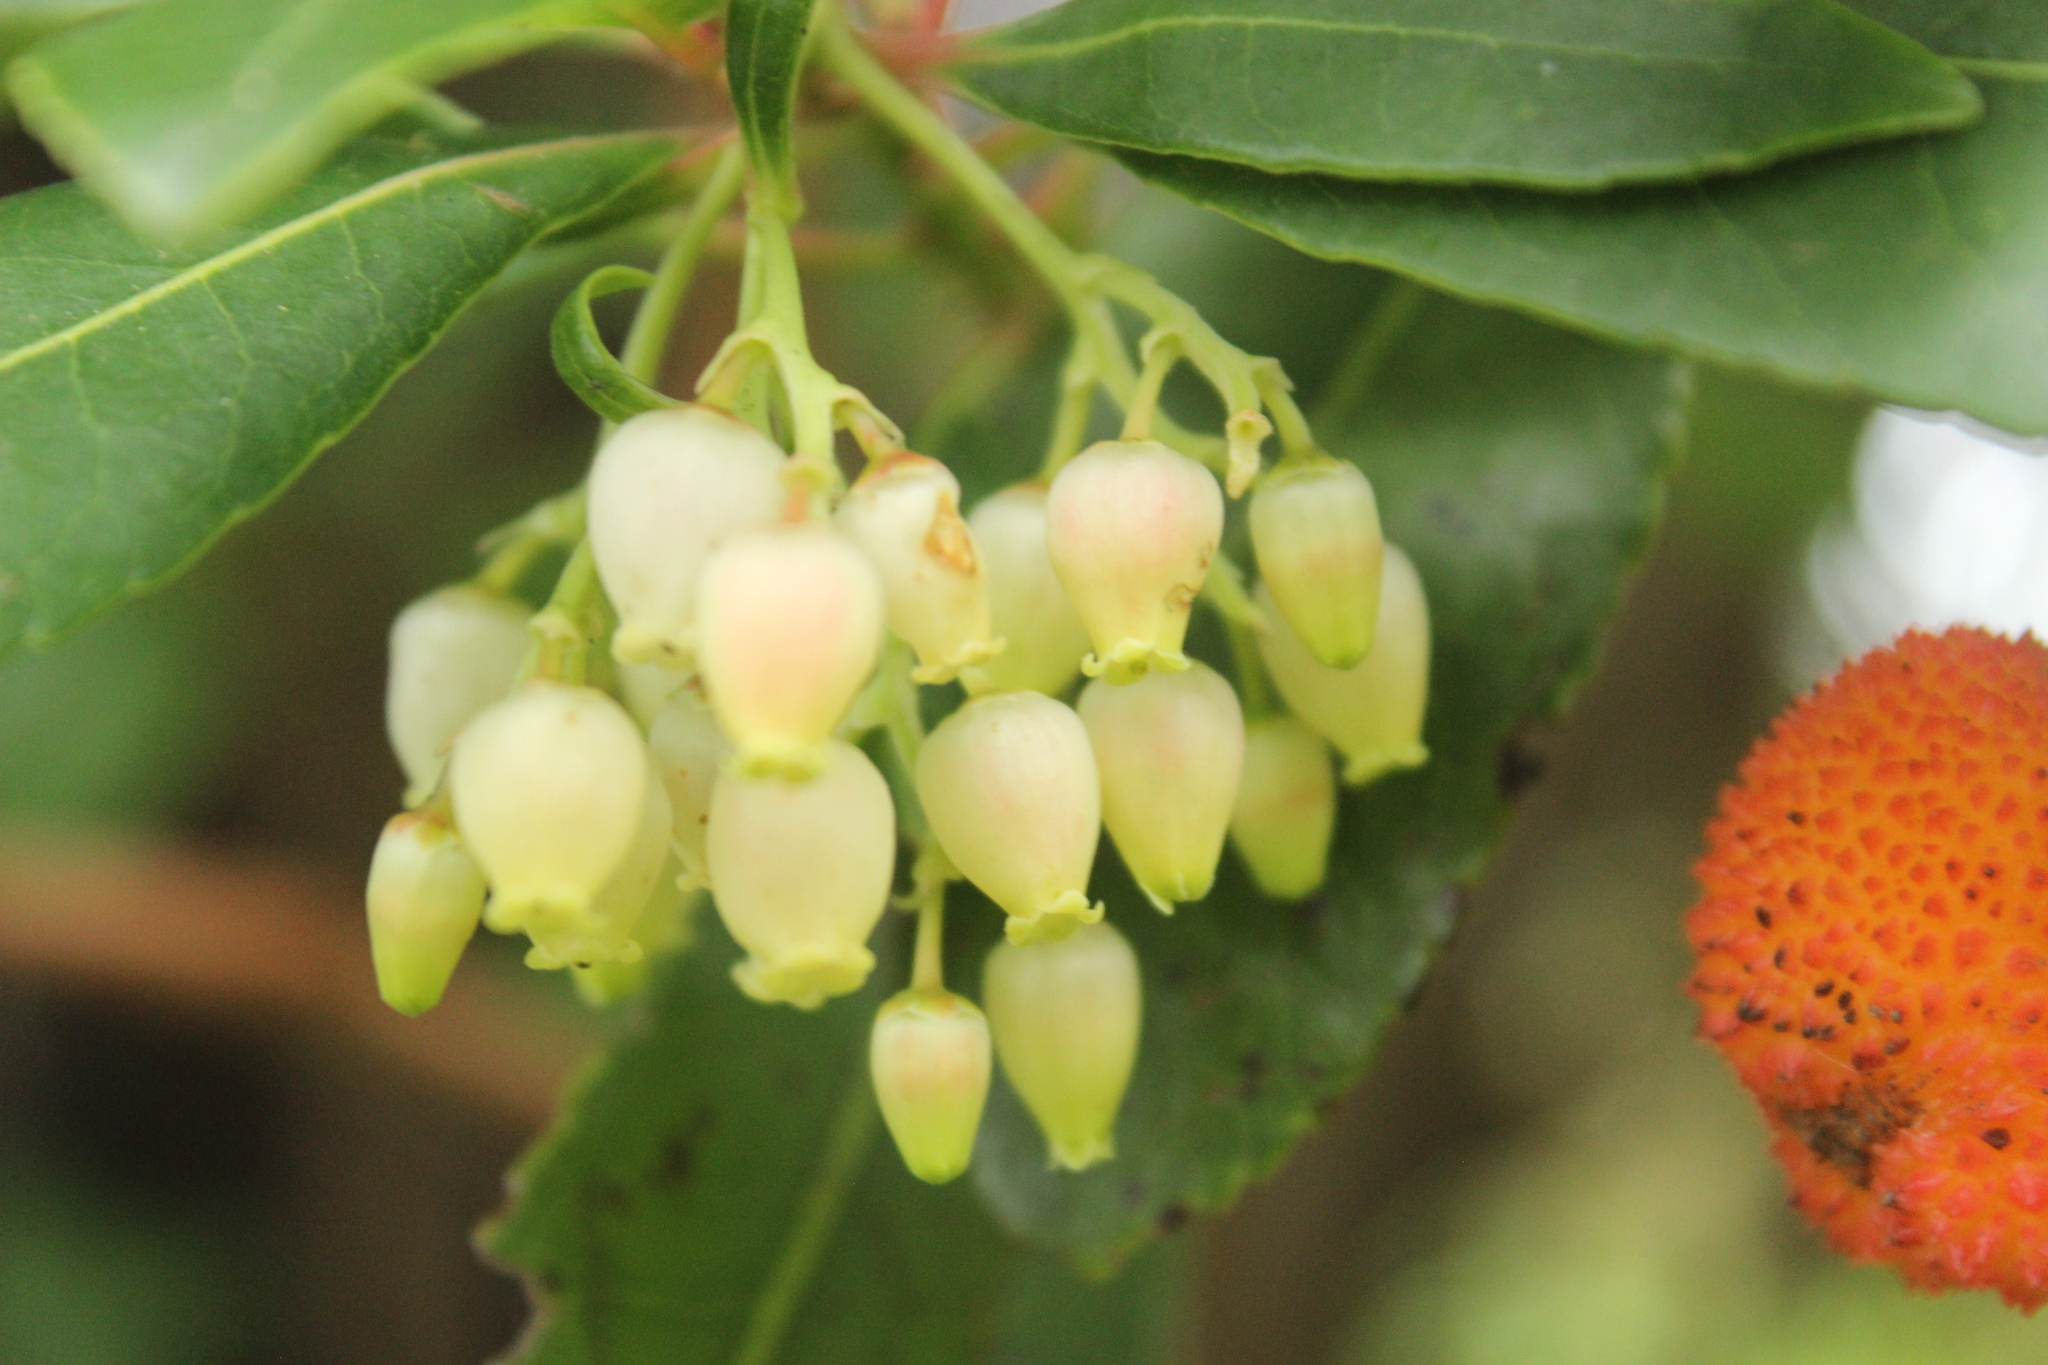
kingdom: Plantae
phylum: Tracheophyta
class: Magnoliopsida
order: Ericales
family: Ericaceae
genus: Arbutus
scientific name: Arbutus unedo
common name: Strawberry-tree
